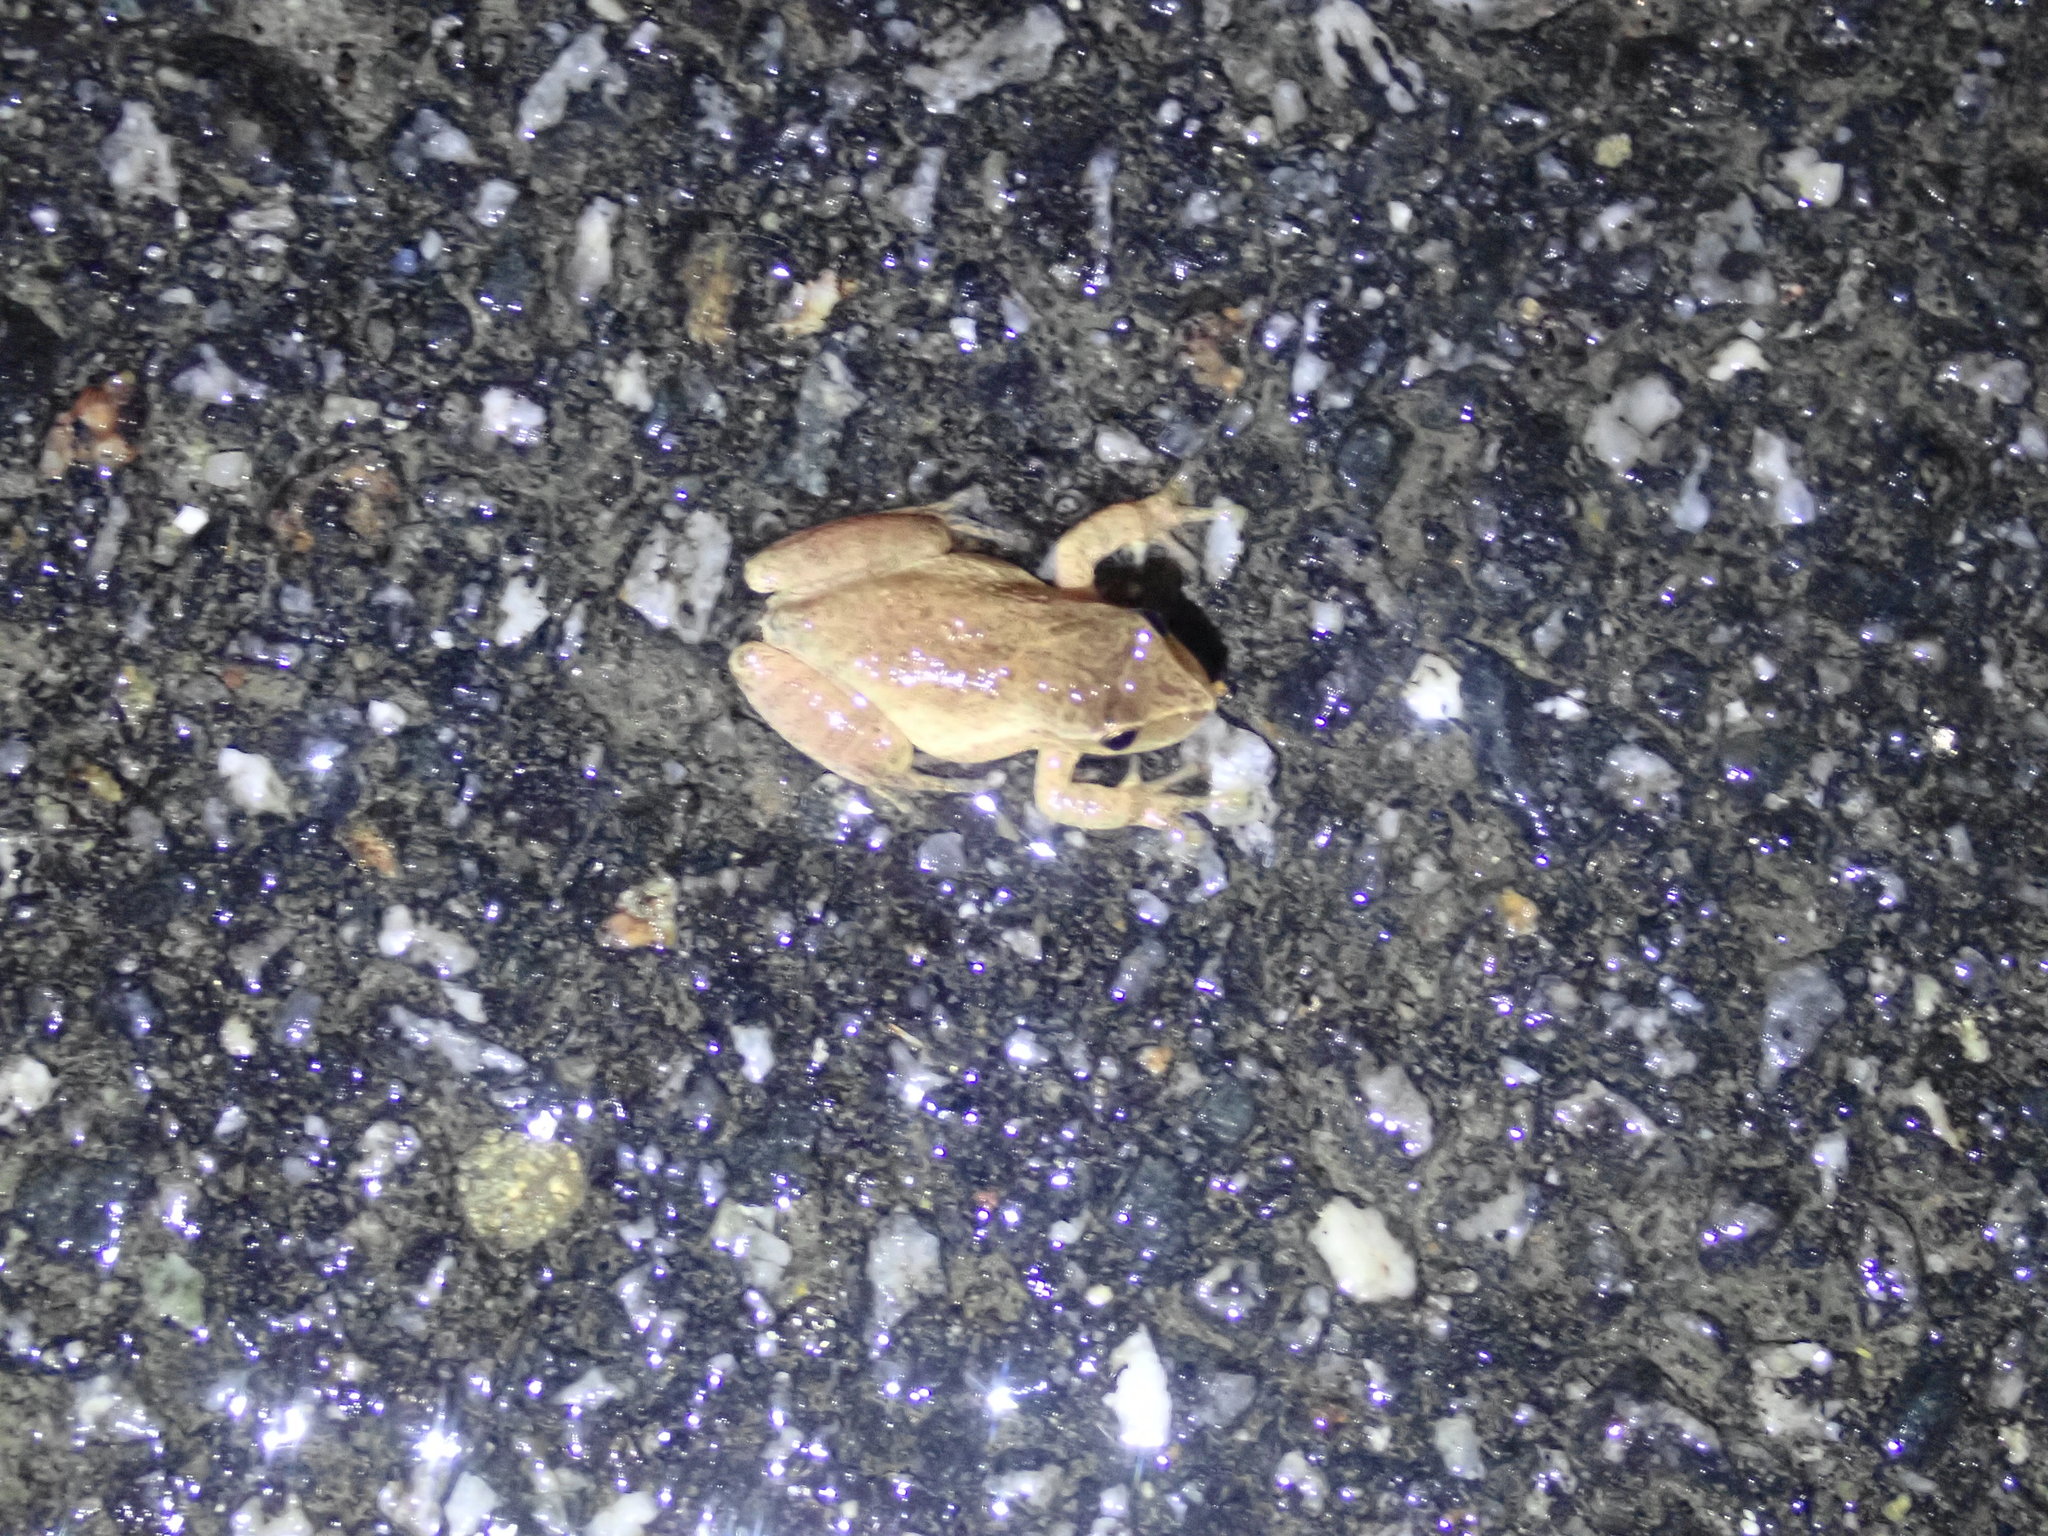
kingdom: Animalia
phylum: Chordata
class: Amphibia
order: Anura
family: Hylidae
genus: Pseudacris
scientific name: Pseudacris crucifer
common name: Spring peeper
